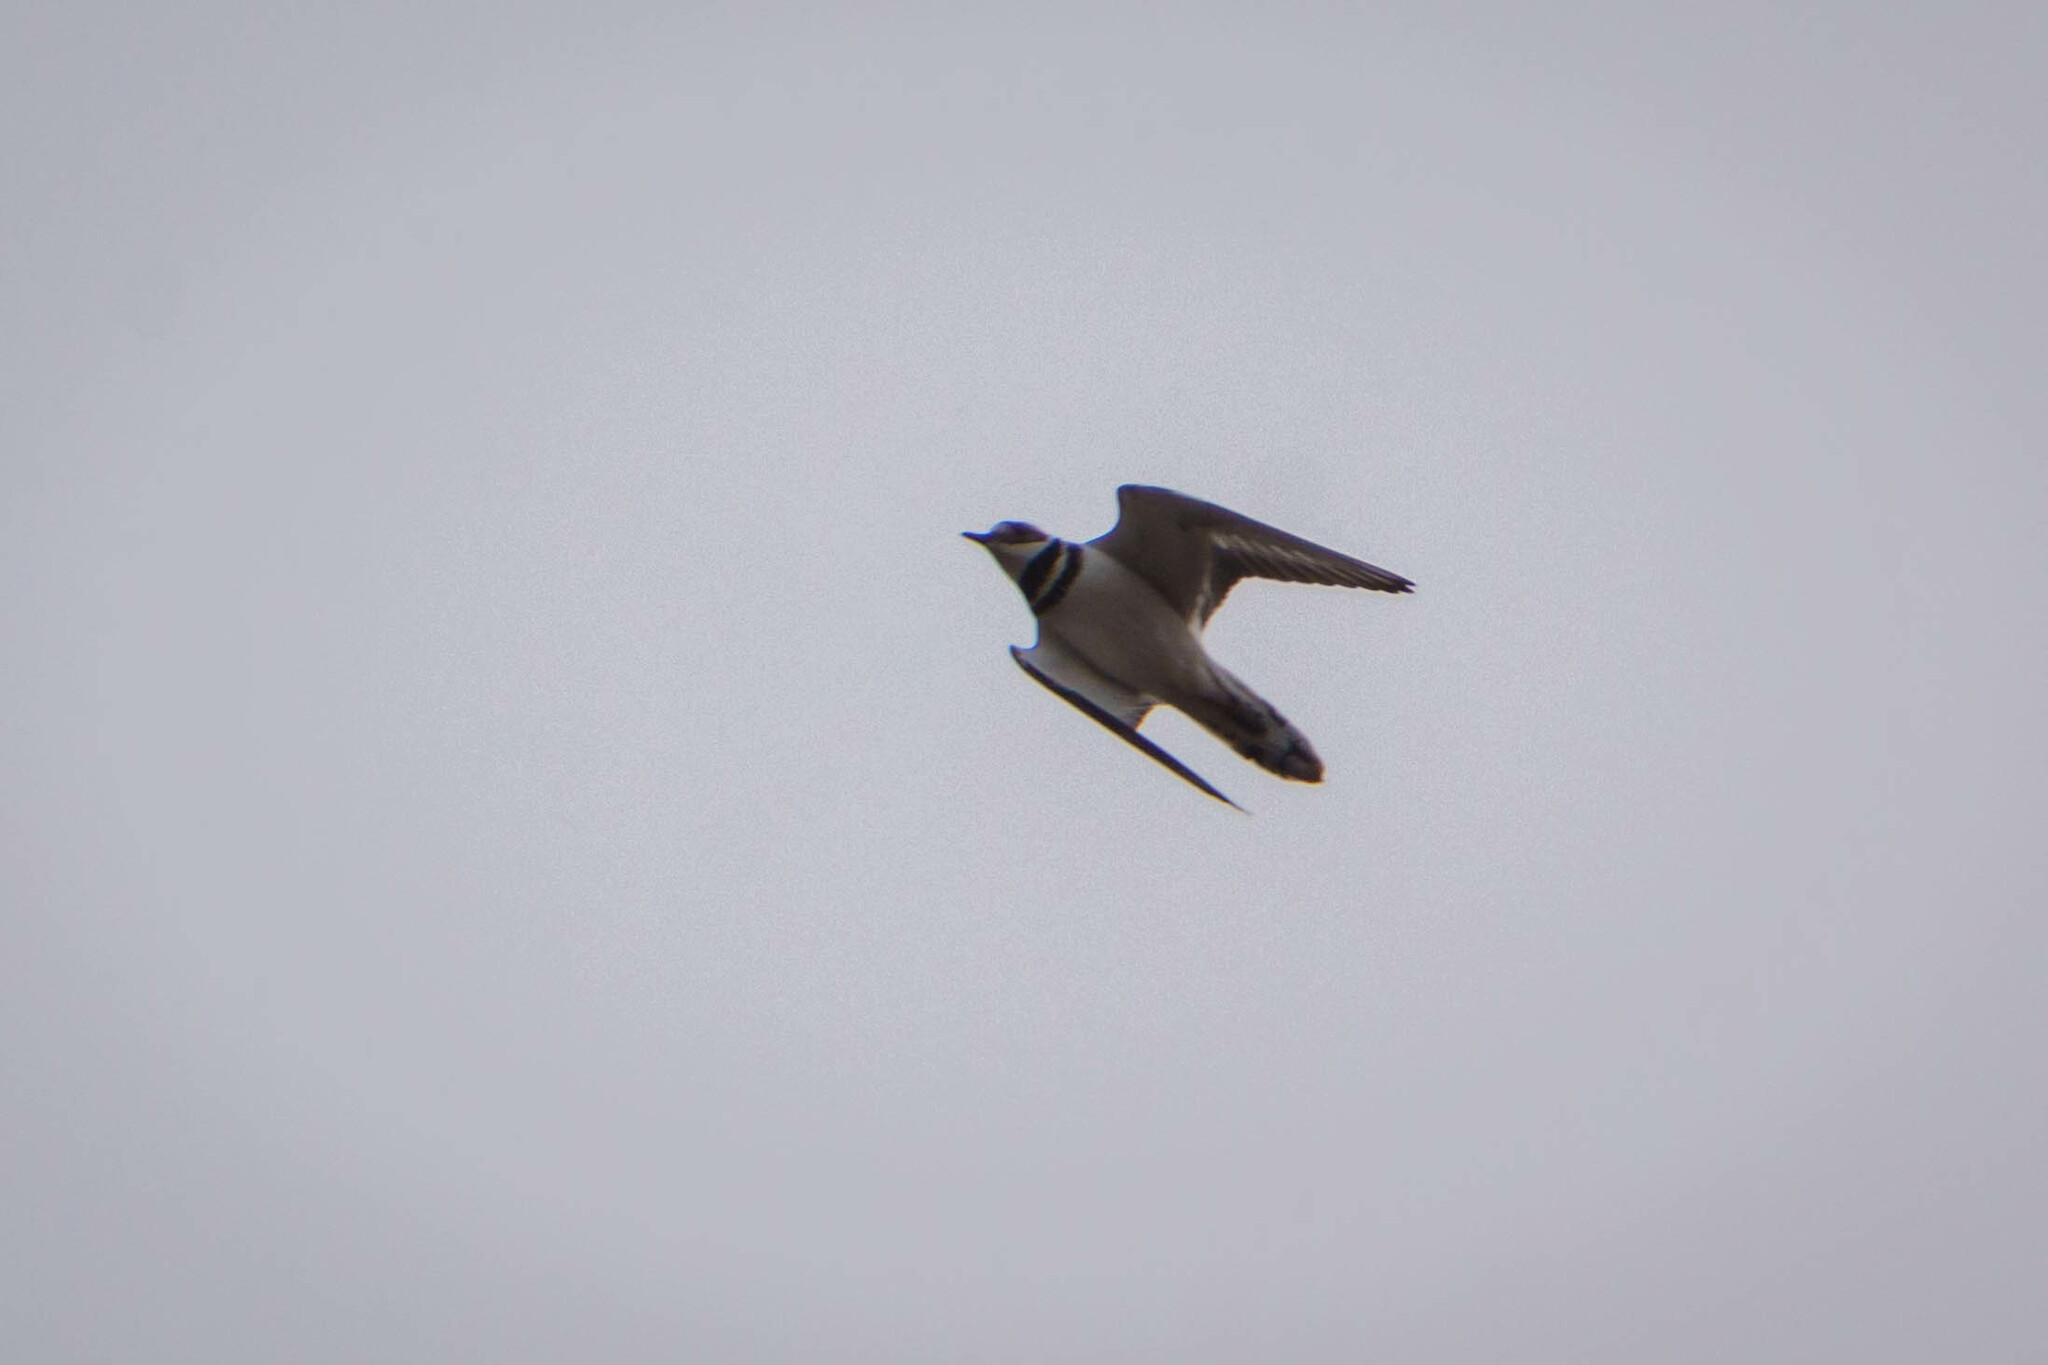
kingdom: Animalia
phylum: Chordata
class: Aves
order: Charadriiformes
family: Charadriidae
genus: Charadrius
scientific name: Charadrius vociferus
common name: Killdeer
